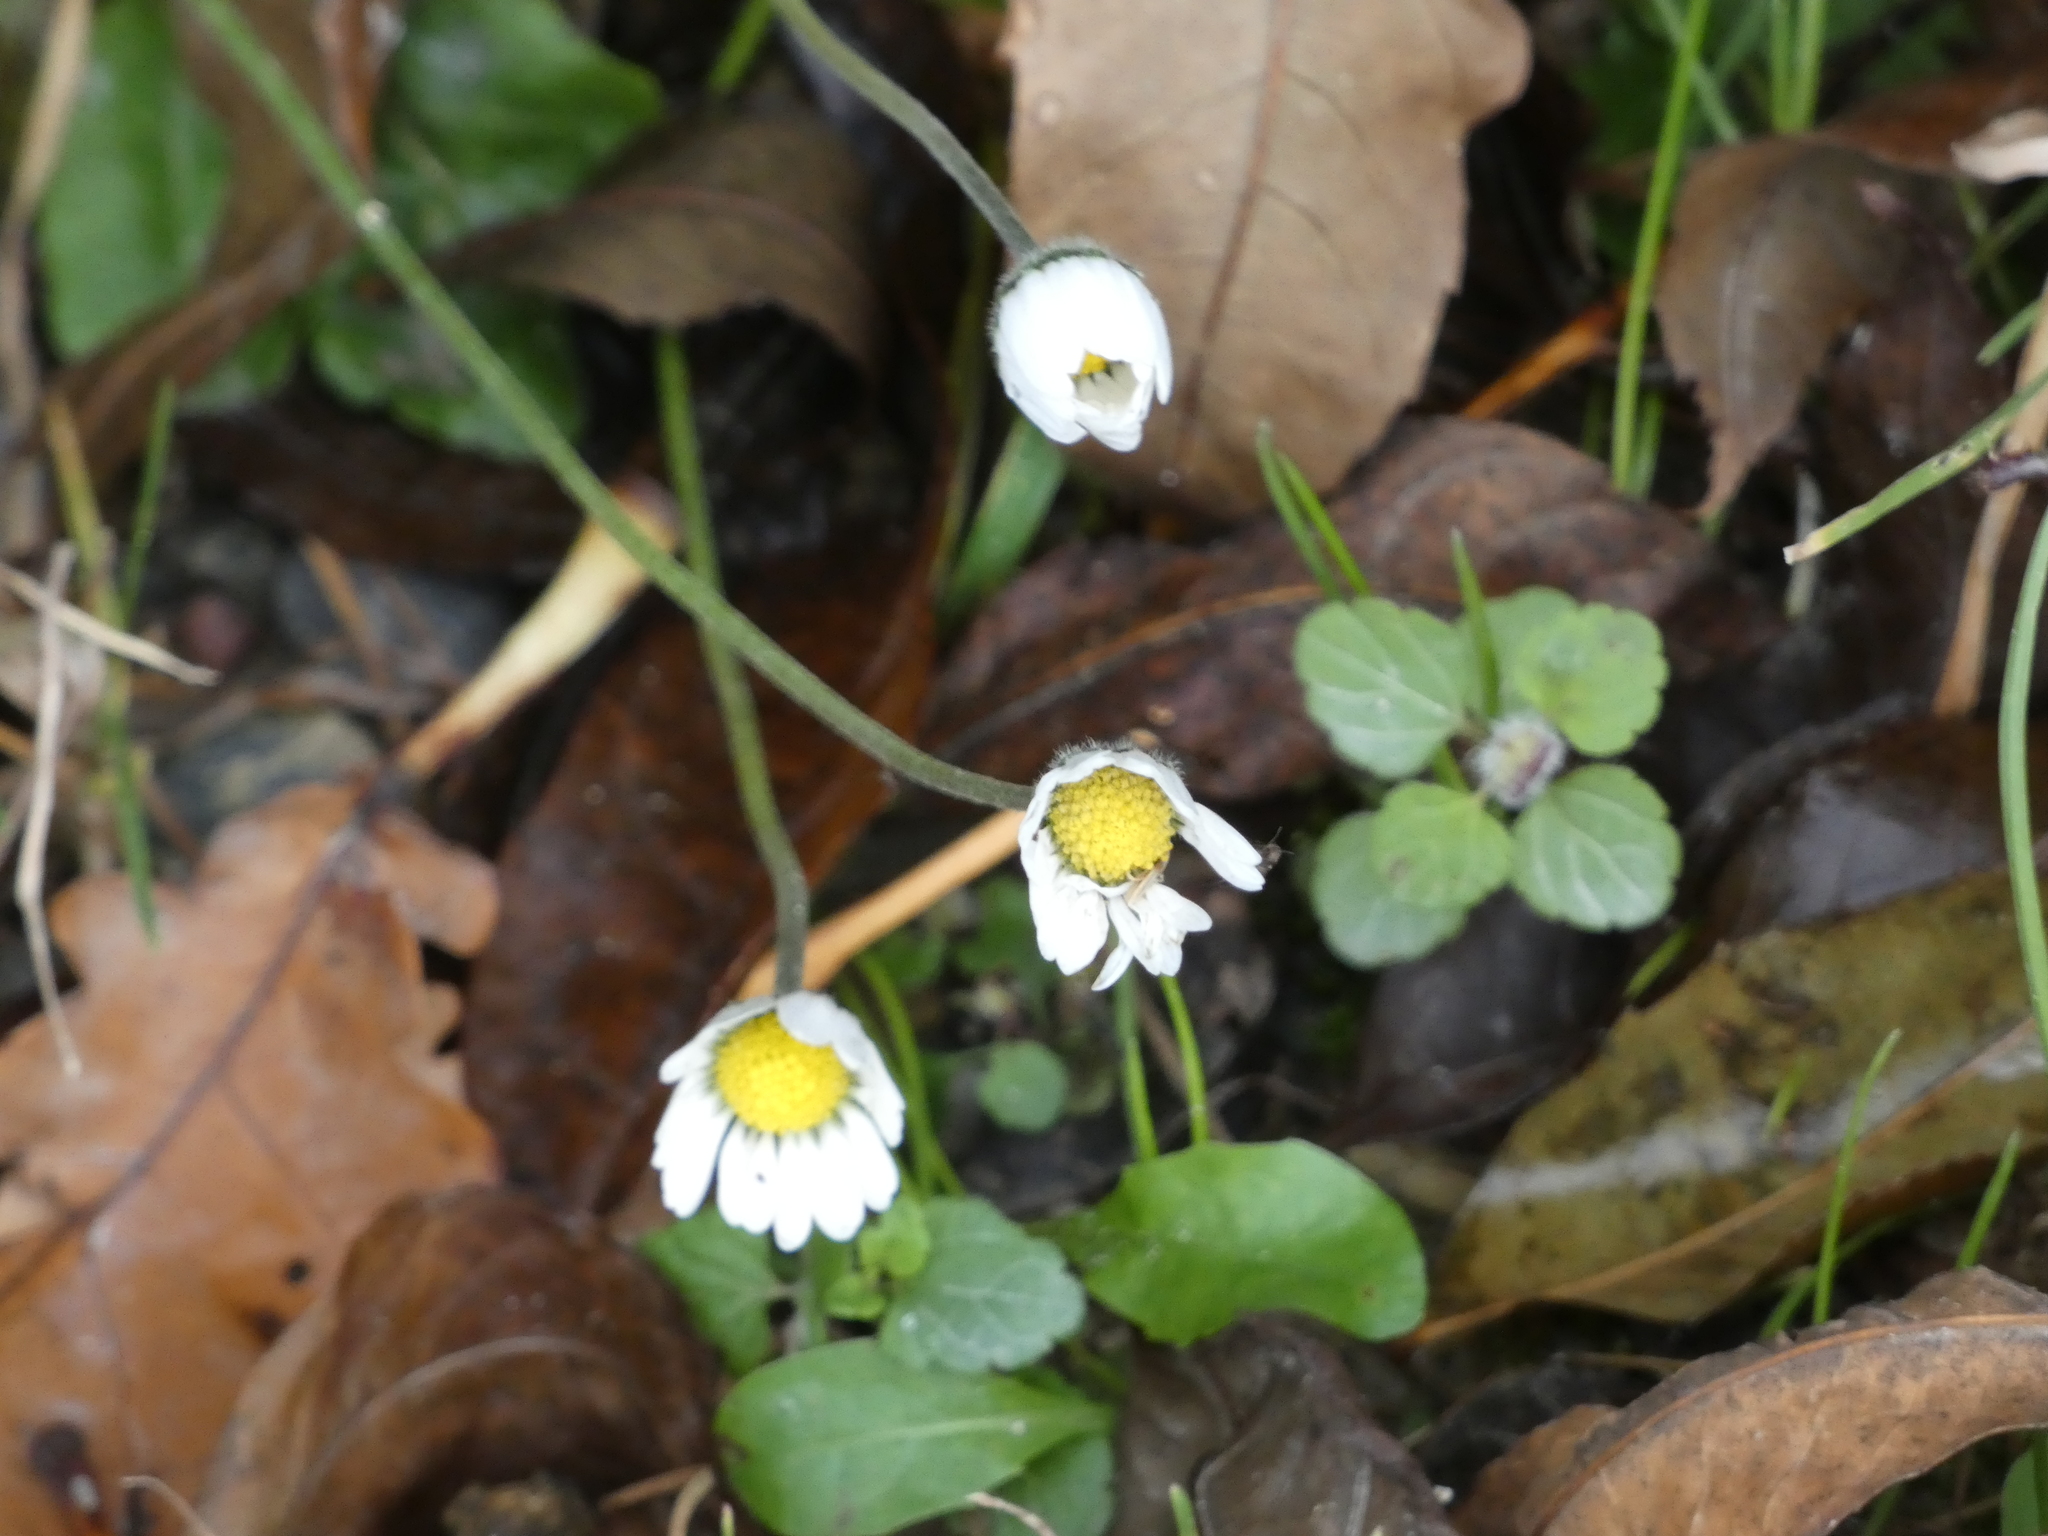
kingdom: Plantae
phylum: Tracheophyta
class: Magnoliopsida
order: Asterales
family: Asteraceae
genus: Bellis
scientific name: Bellis perennis
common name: Lawndaisy
